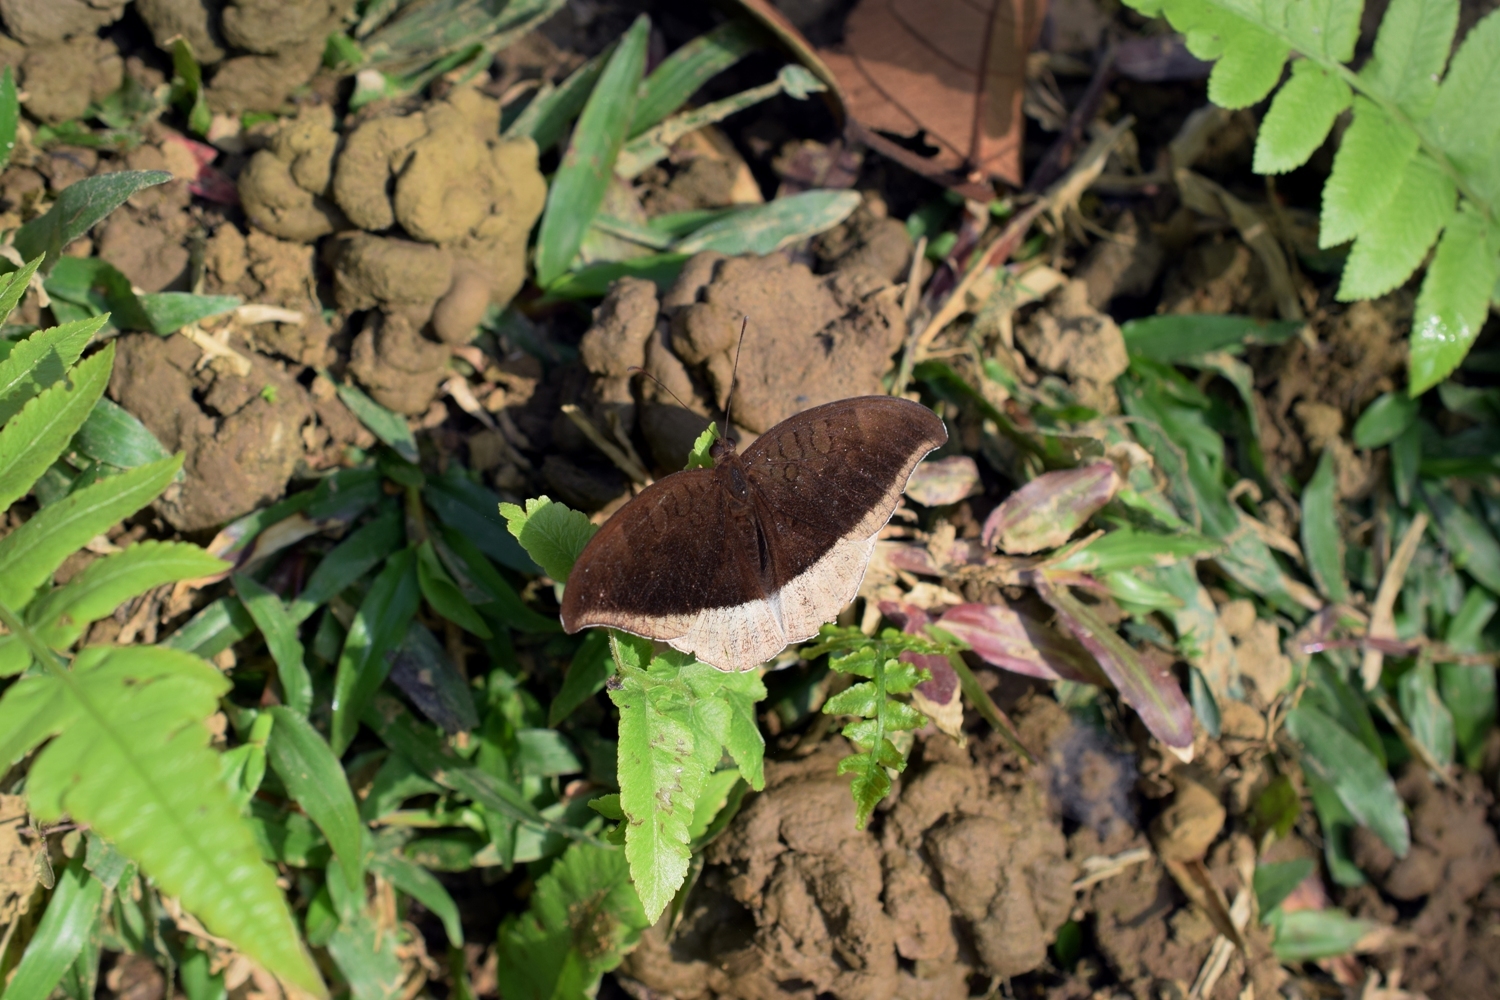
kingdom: Animalia
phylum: Arthropoda
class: Insecta
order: Lepidoptera
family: Nymphalidae
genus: Tanaecia
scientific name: Tanaecia lepidea
